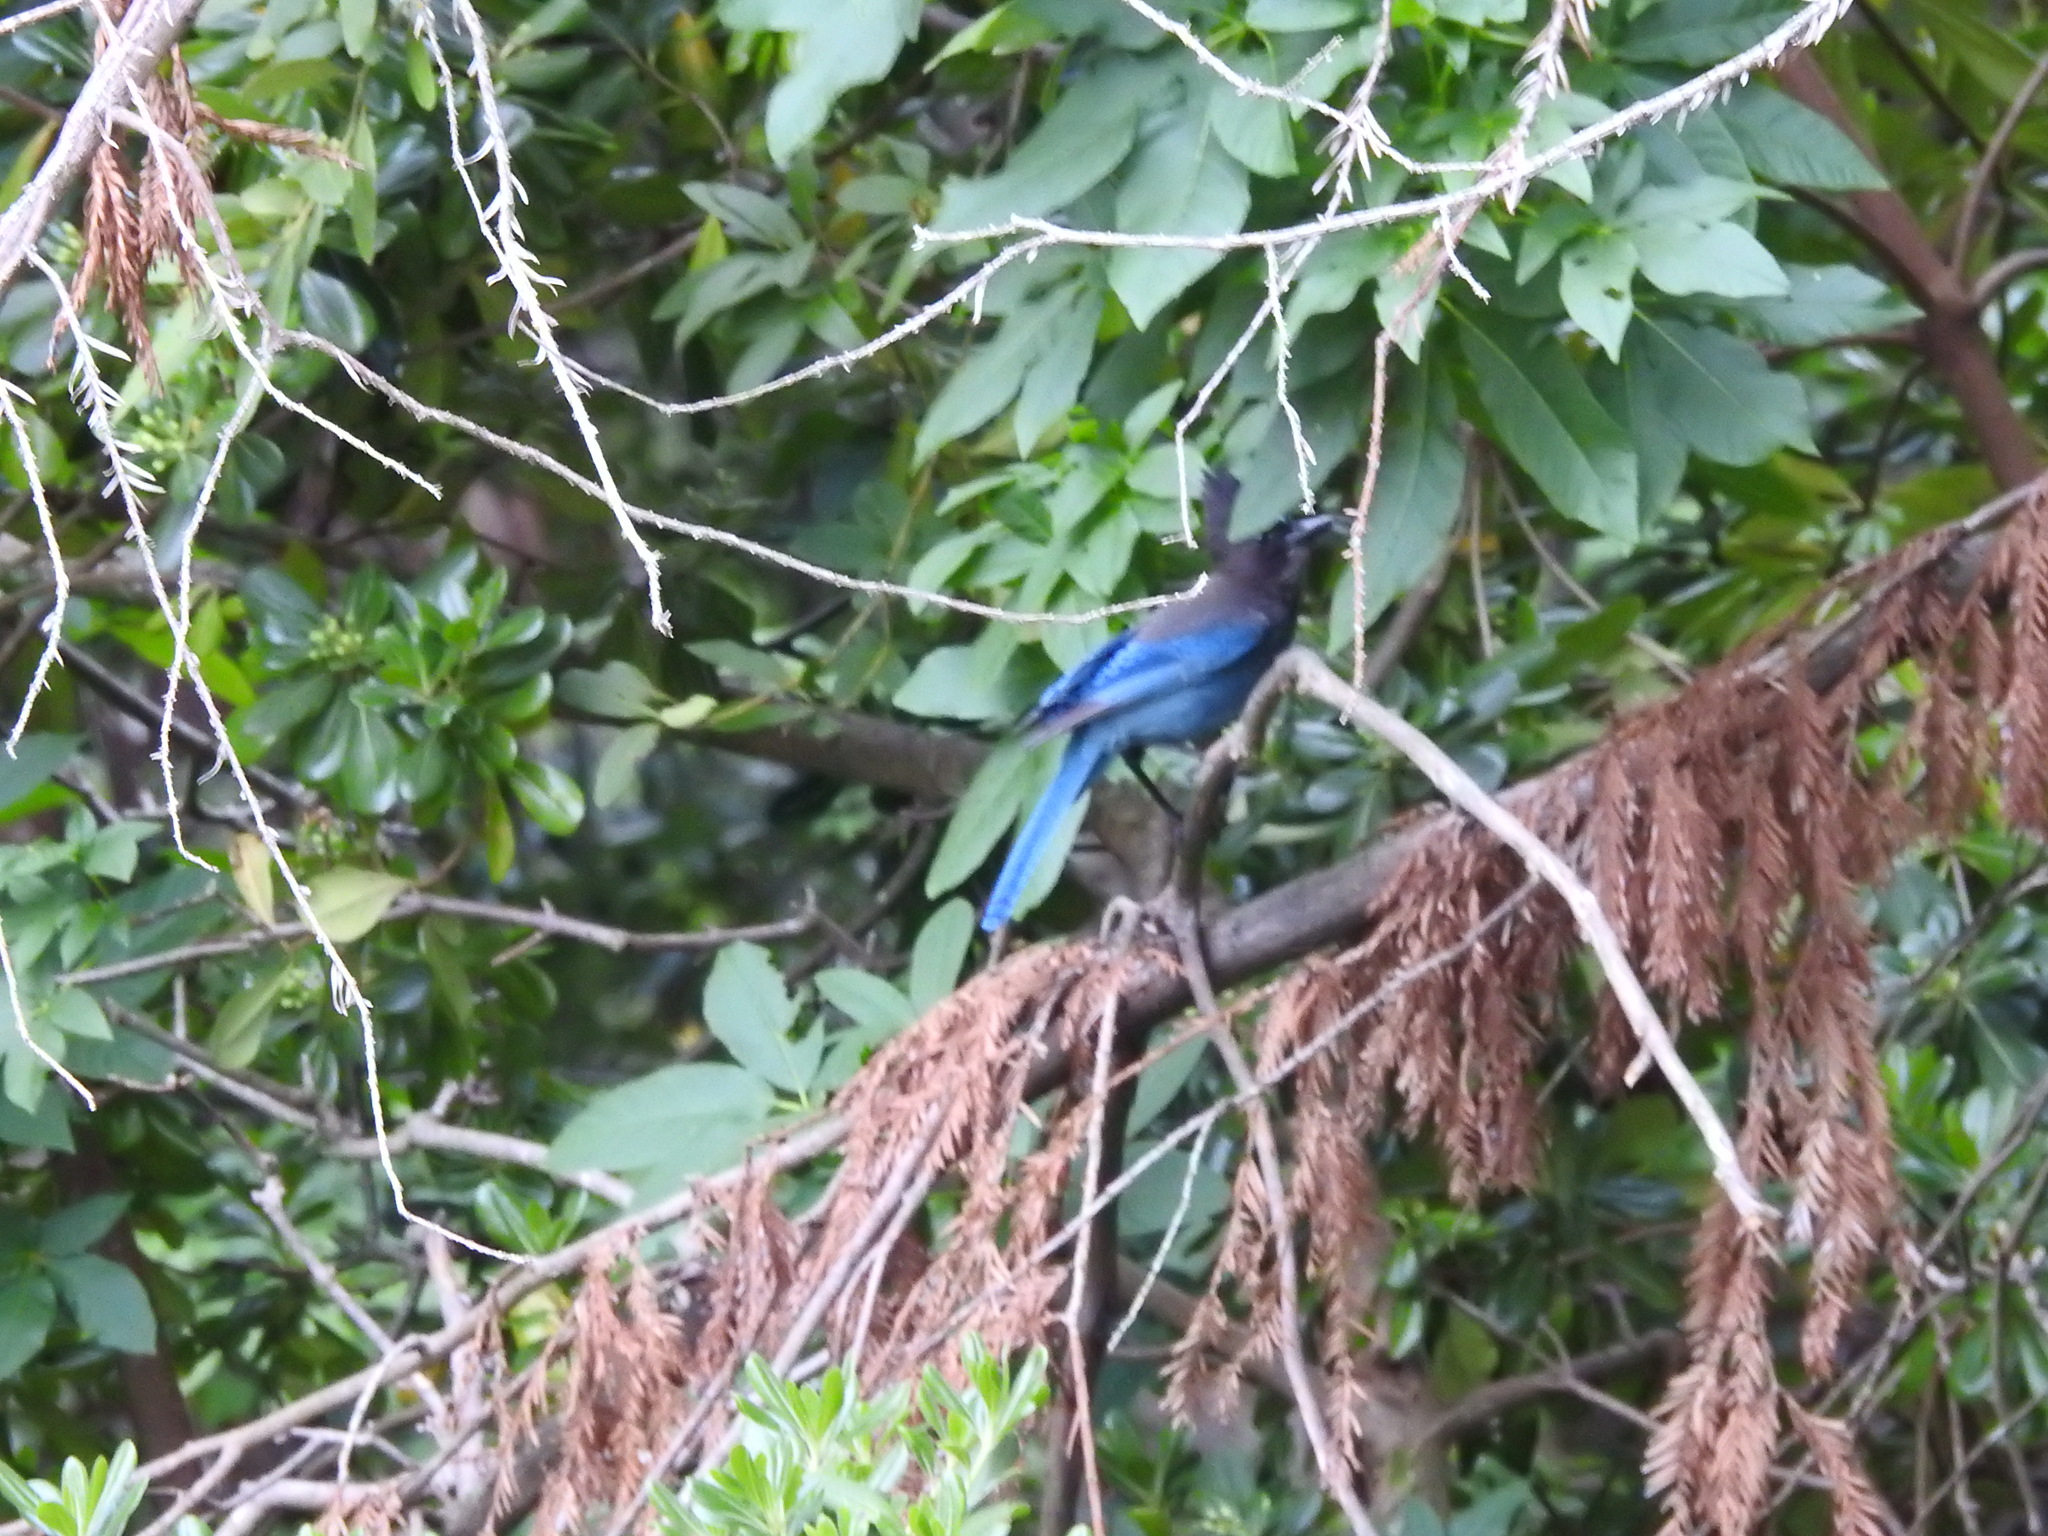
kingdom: Animalia
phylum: Chordata
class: Aves
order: Passeriformes
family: Corvidae
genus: Cyanocitta
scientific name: Cyanocitta stelleri
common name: Steller's jay
